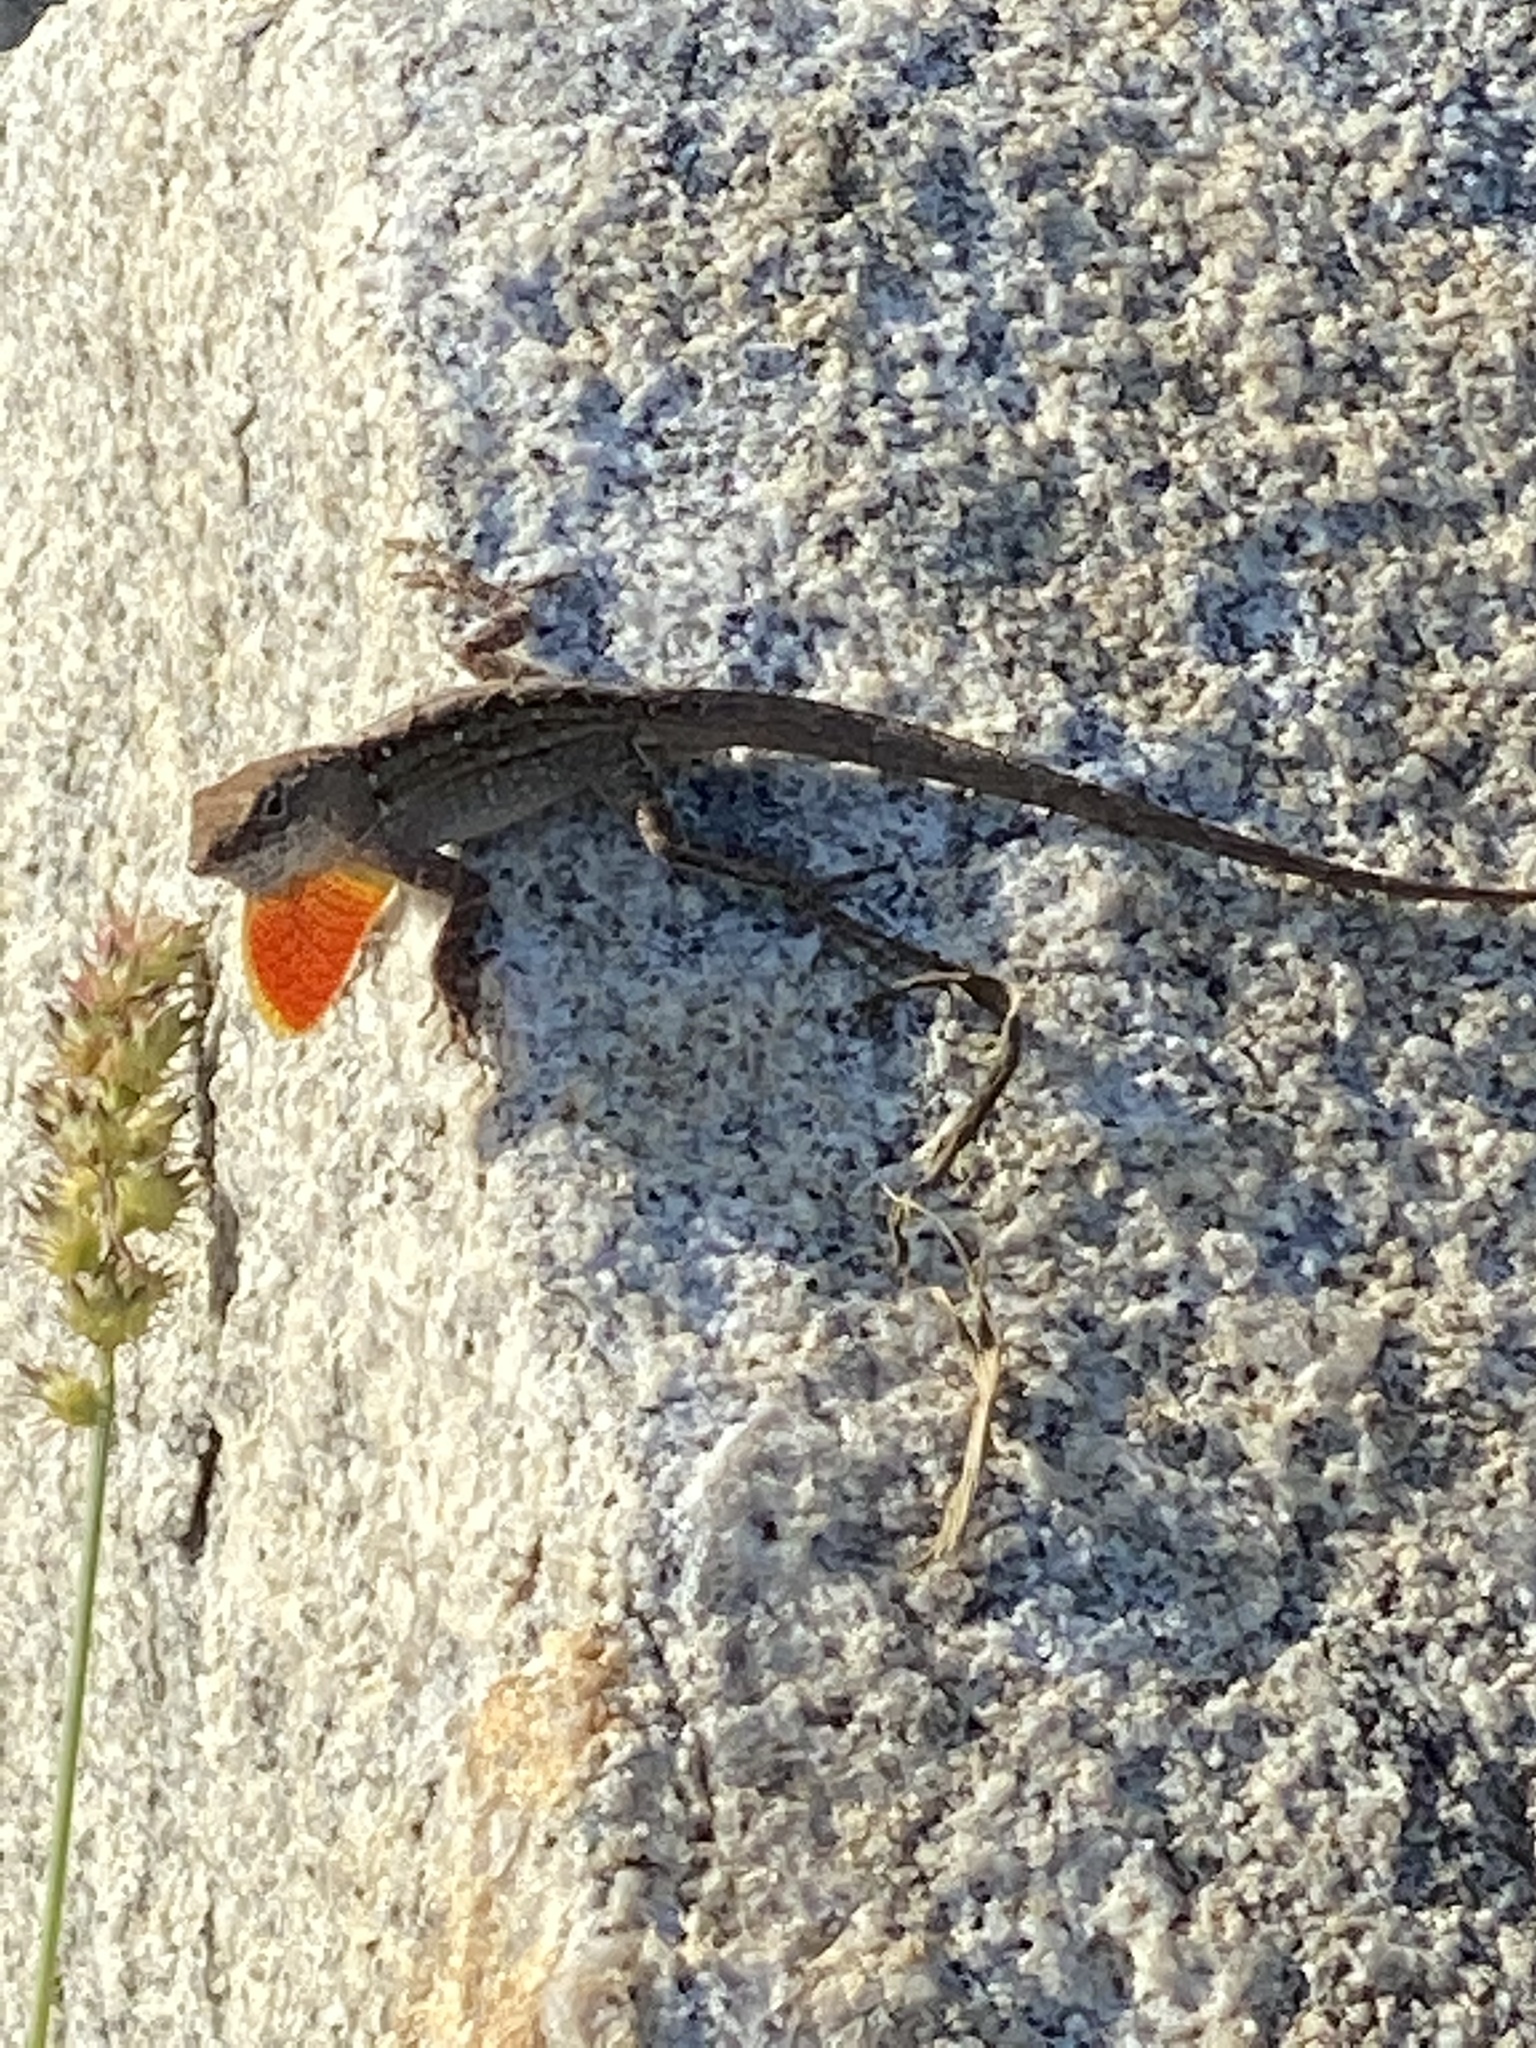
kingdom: Animalia
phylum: Chordata
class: Squamata
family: Dactyloidae
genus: Anolis
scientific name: Anolis sagrei
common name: Brown anole
